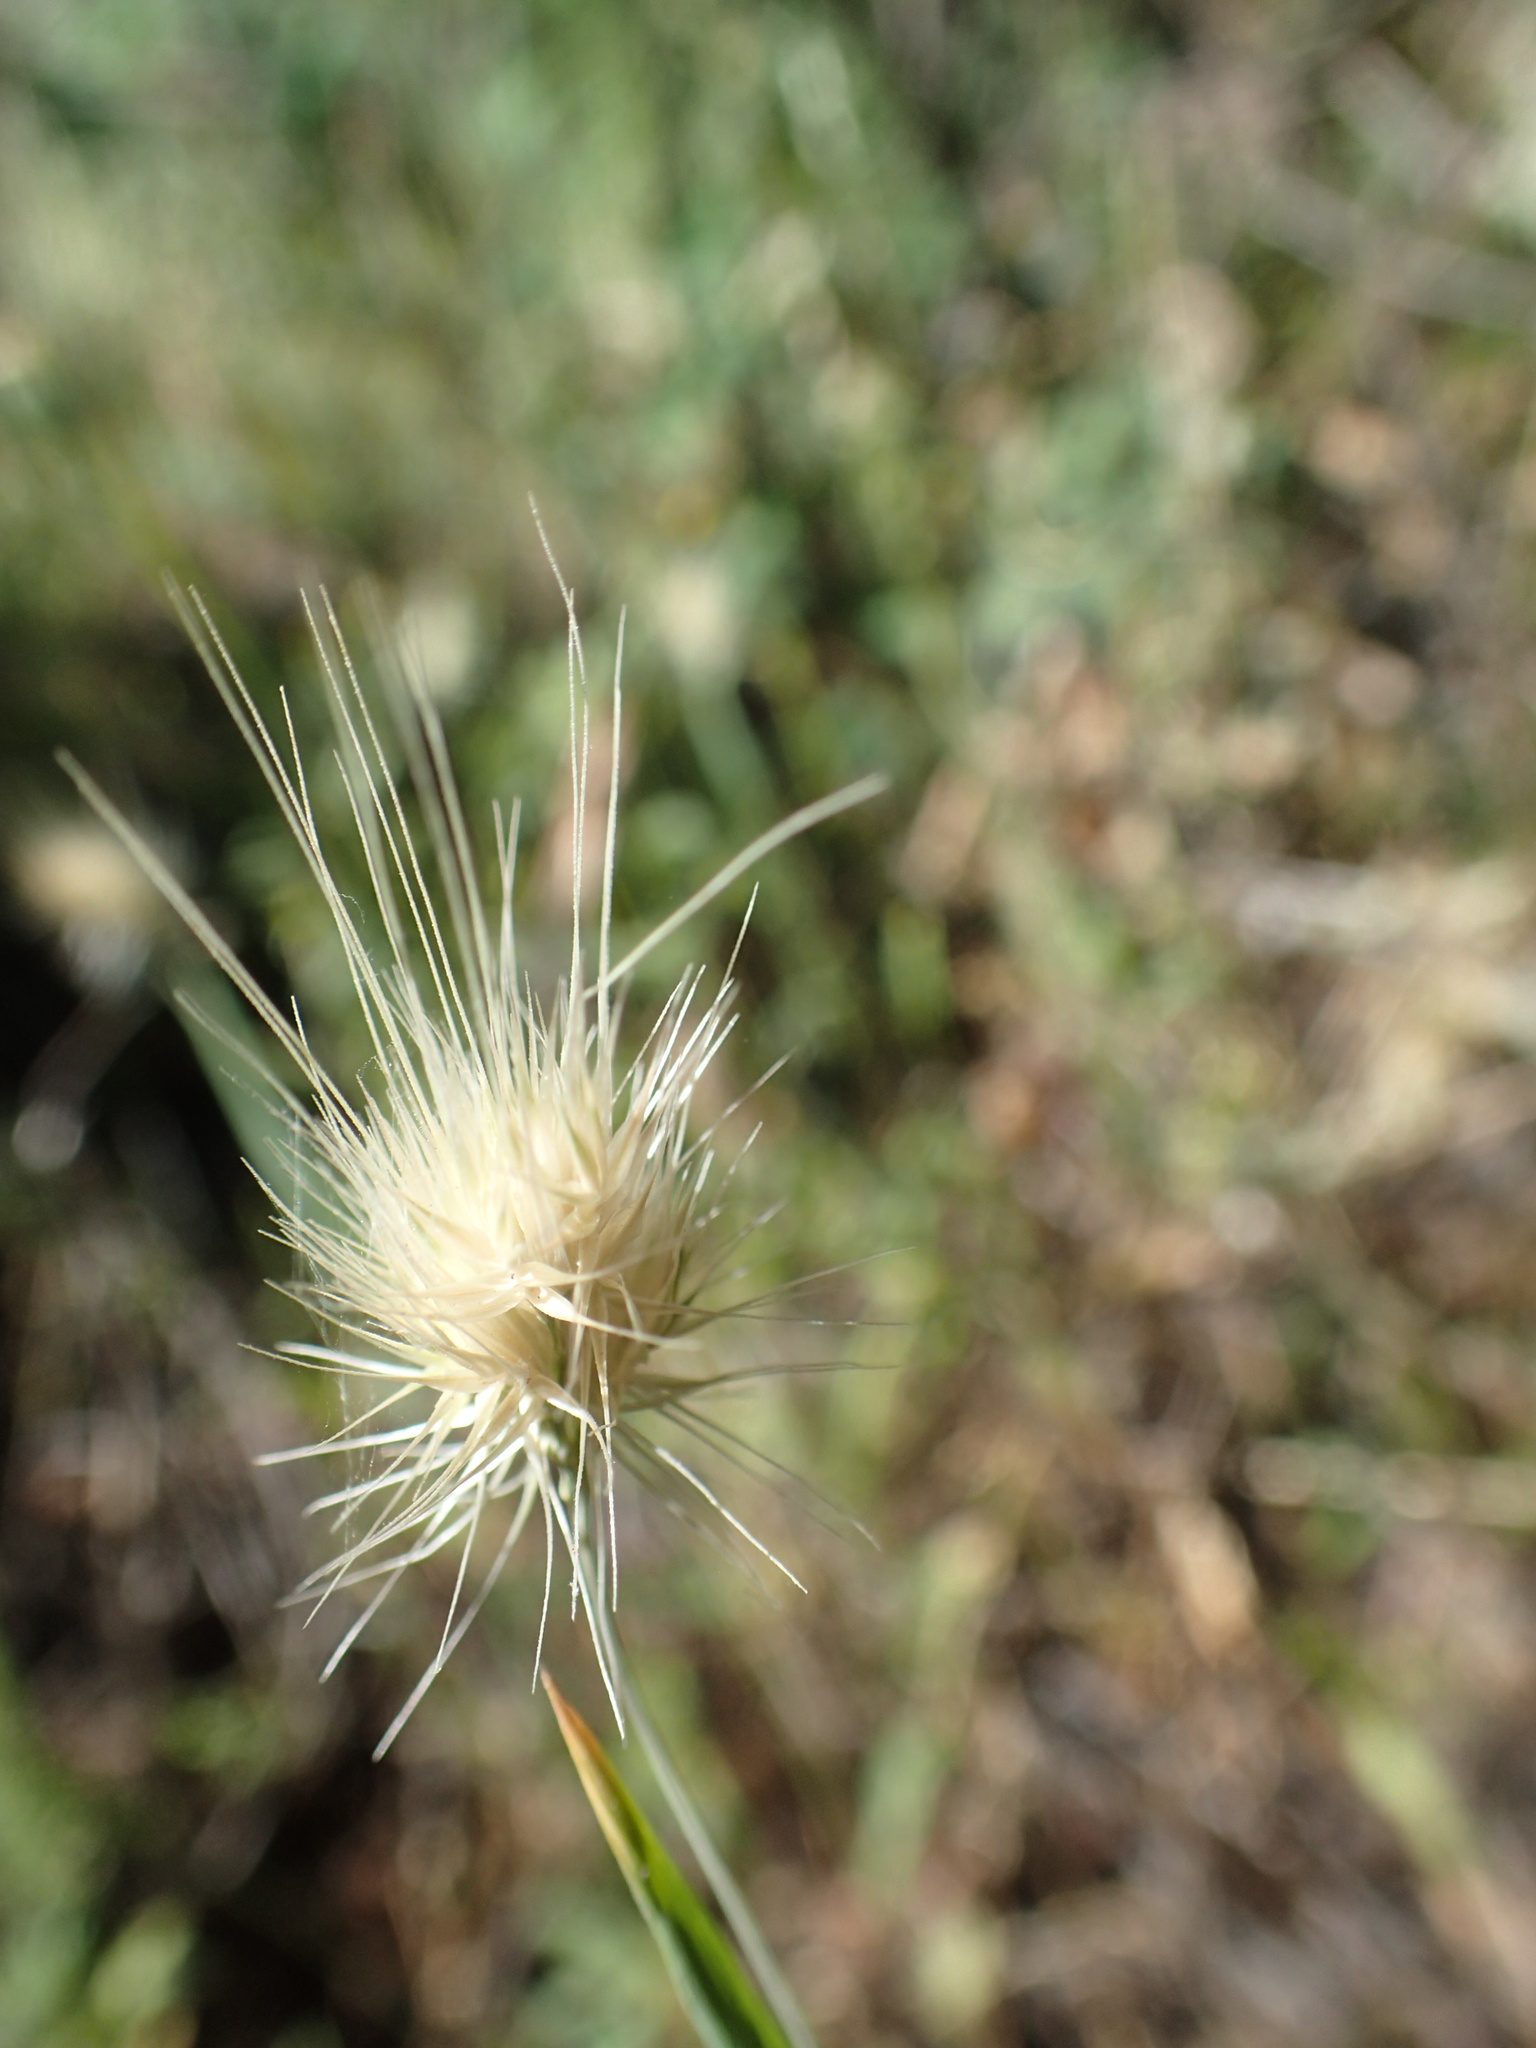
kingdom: Plantae
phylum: Tracheophyta
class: Liliopsida
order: Poales
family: Poaceae
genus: Cynosurus
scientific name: Cynosurus echinatus
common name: Rough dog's-tail
